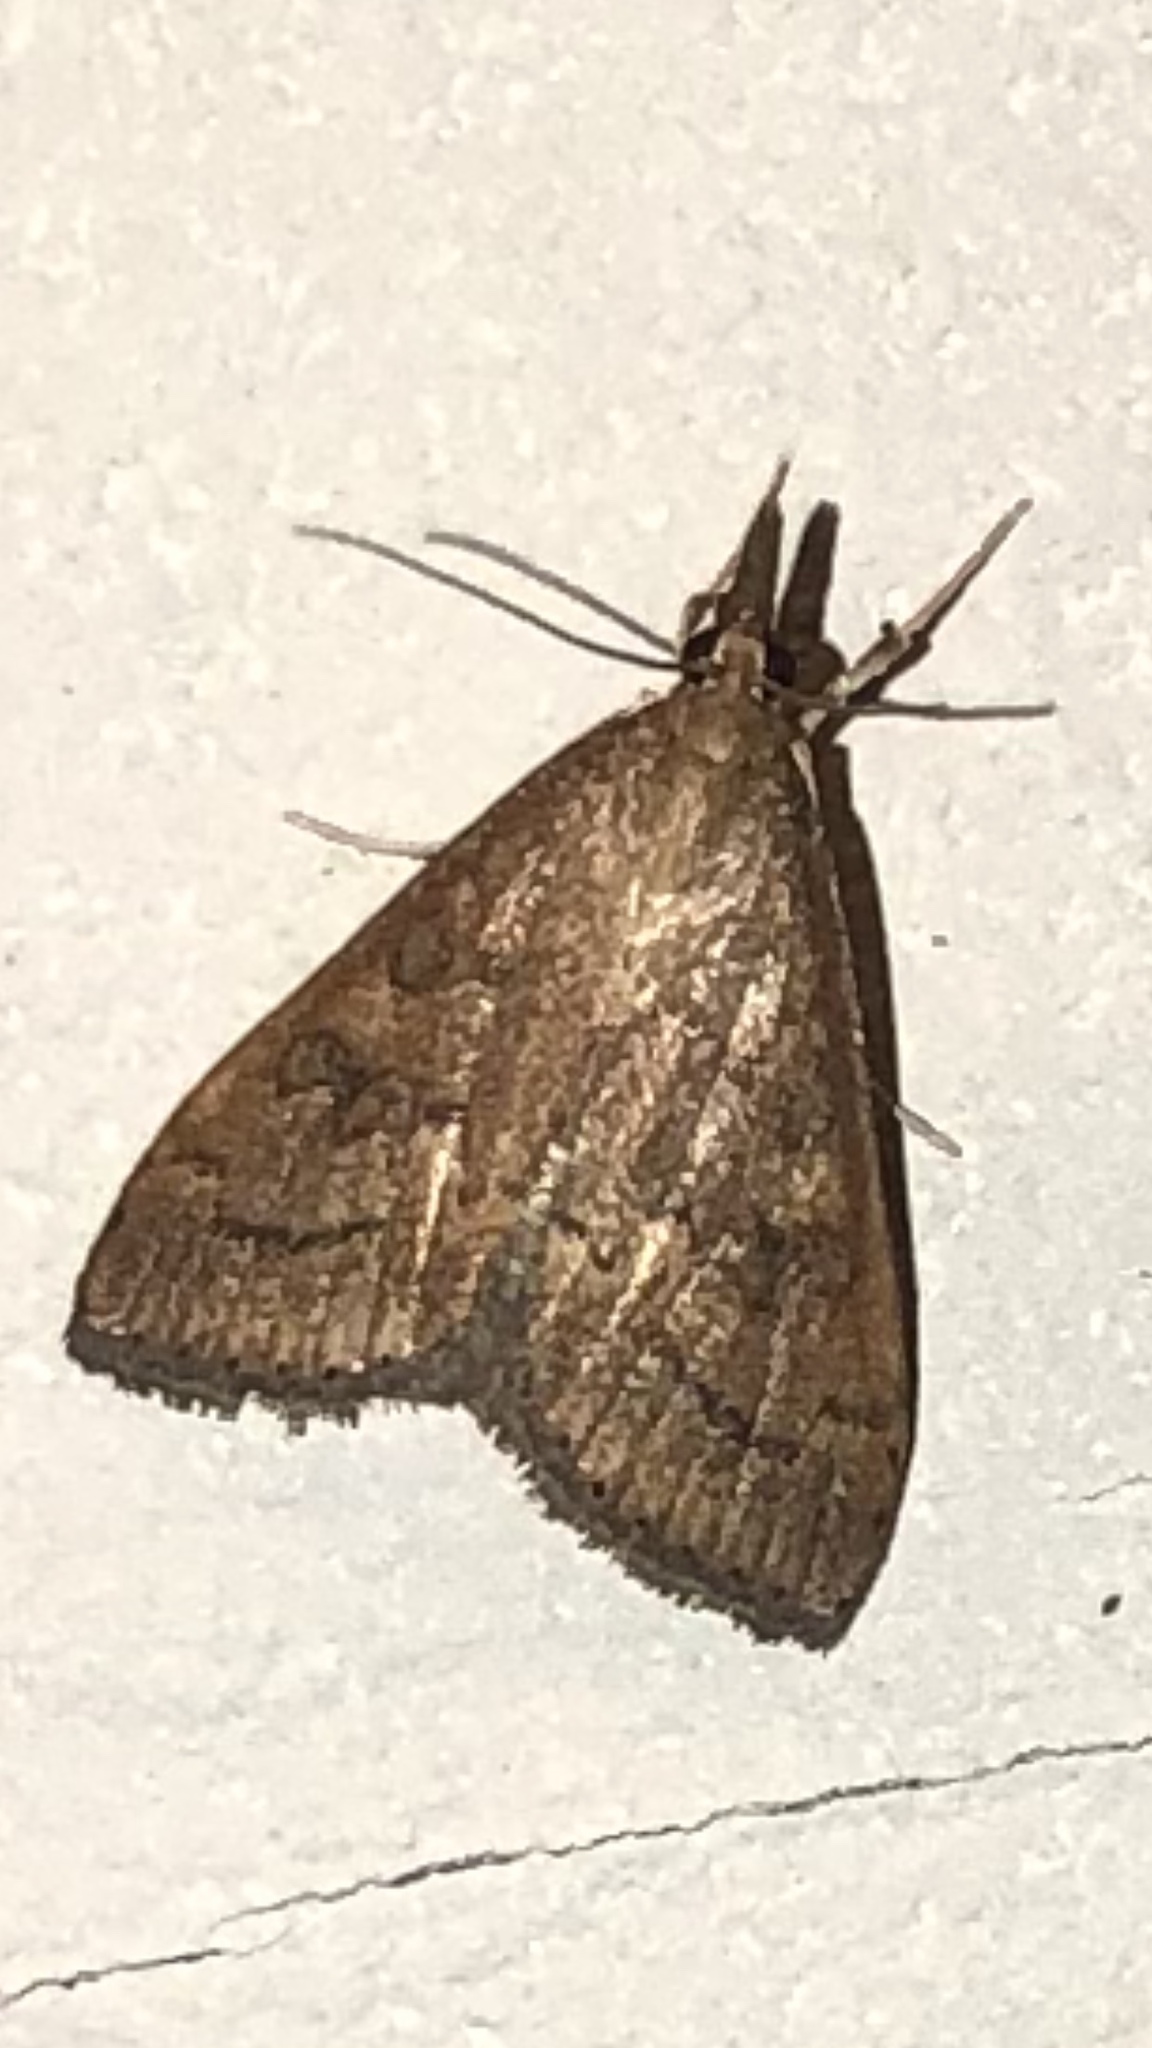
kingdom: Animalia
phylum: Arthropoda
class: Insecta
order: Lepidoptera
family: Crambidae
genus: Udea
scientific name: Udea rubigalis
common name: Celery leaftier moth
